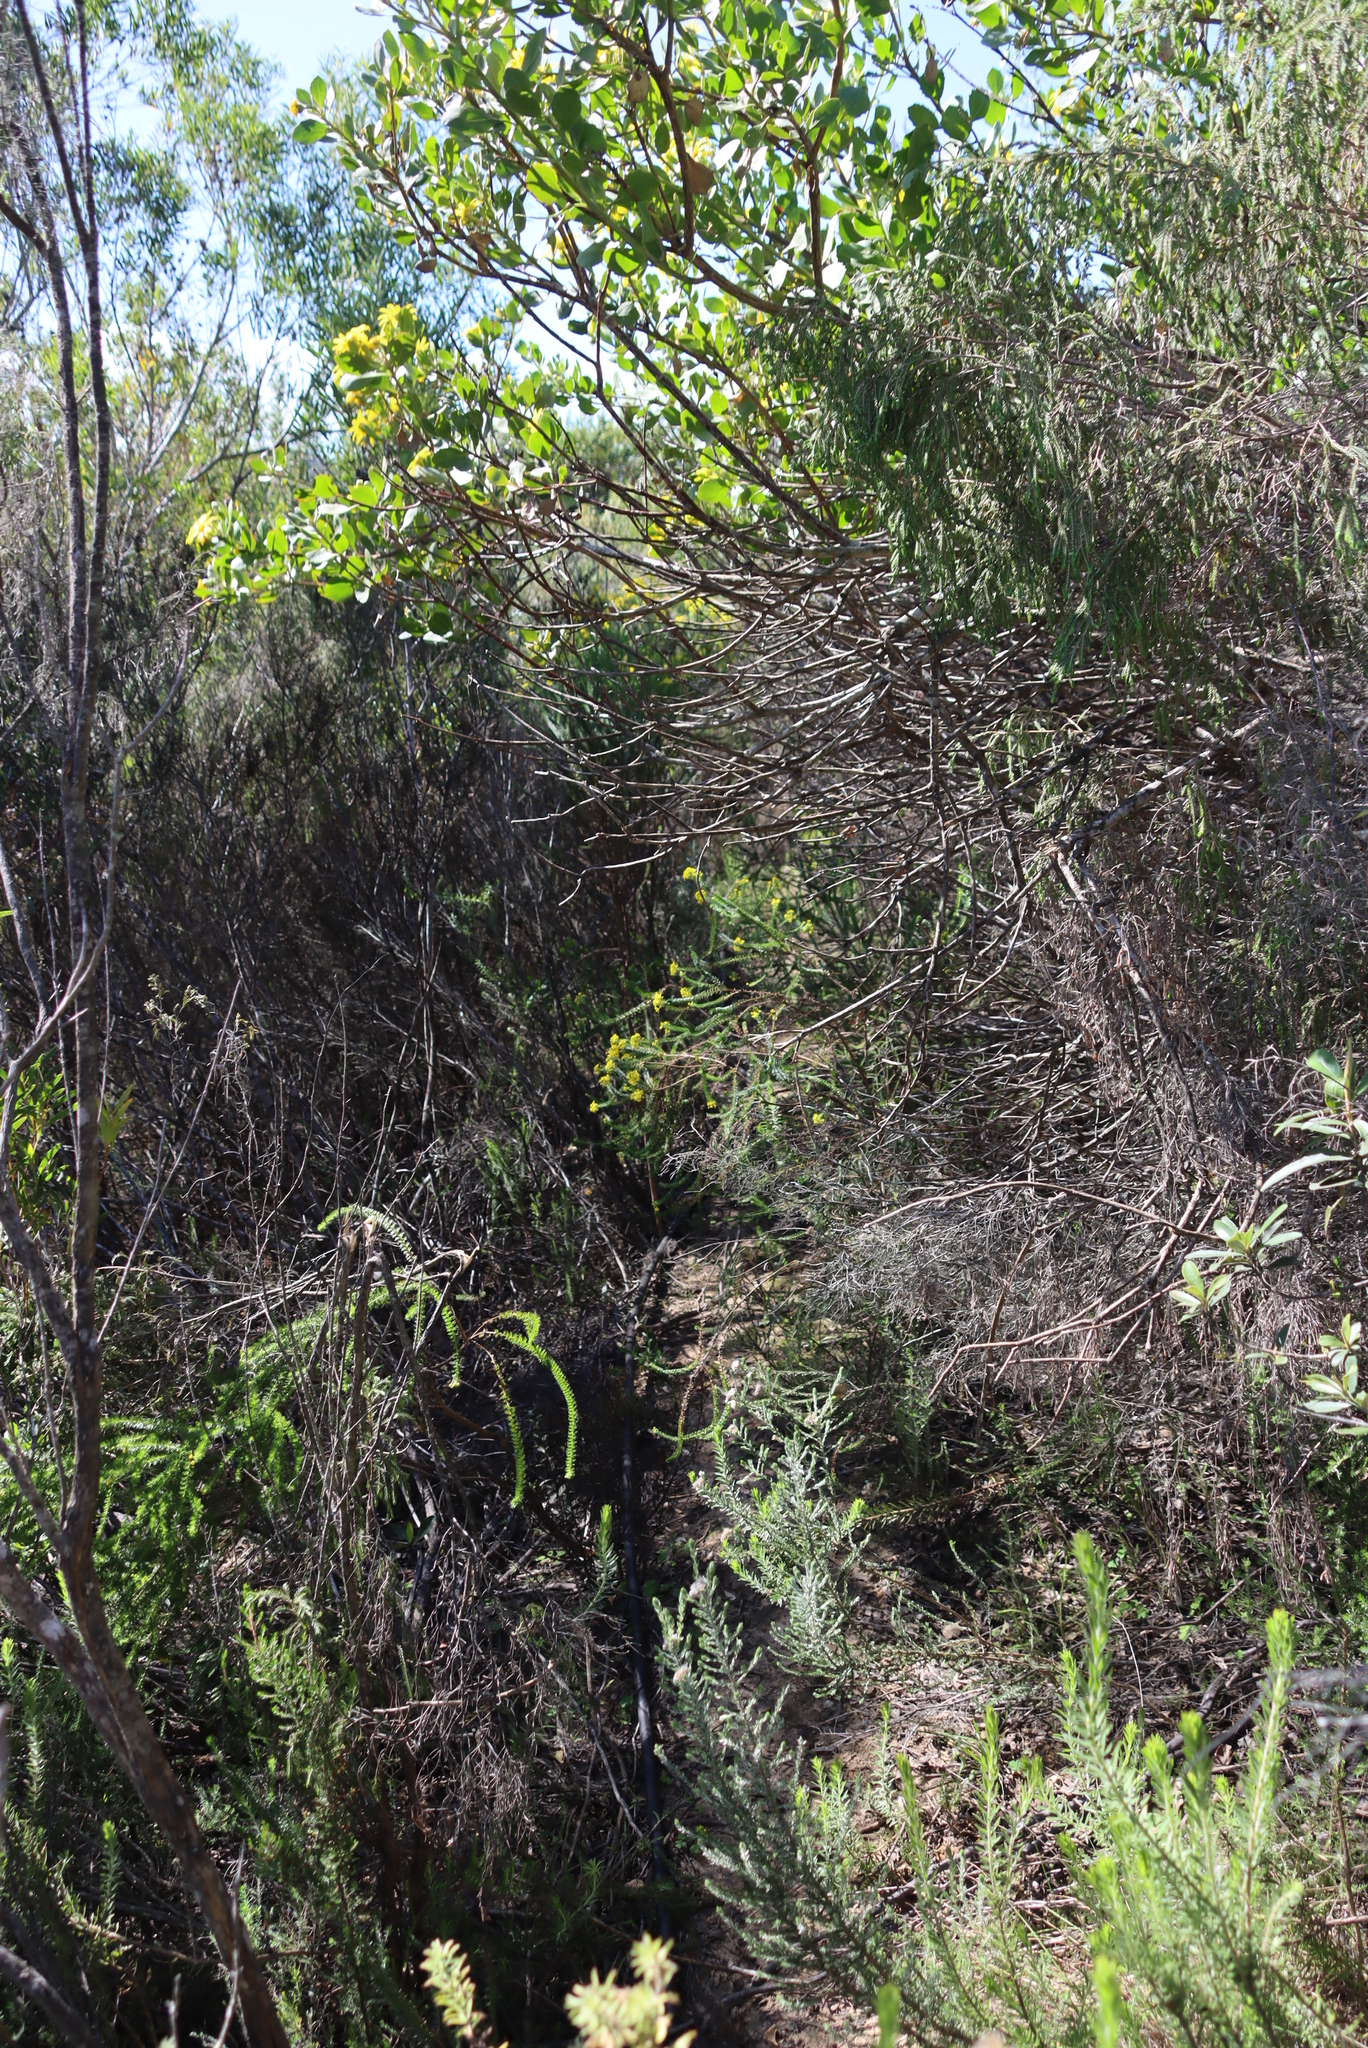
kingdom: Plantae
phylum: Tracheophyta
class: Magnoliopsida
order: Asterales
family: Asteraceae
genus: Euryops
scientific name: Euryops virgineus
